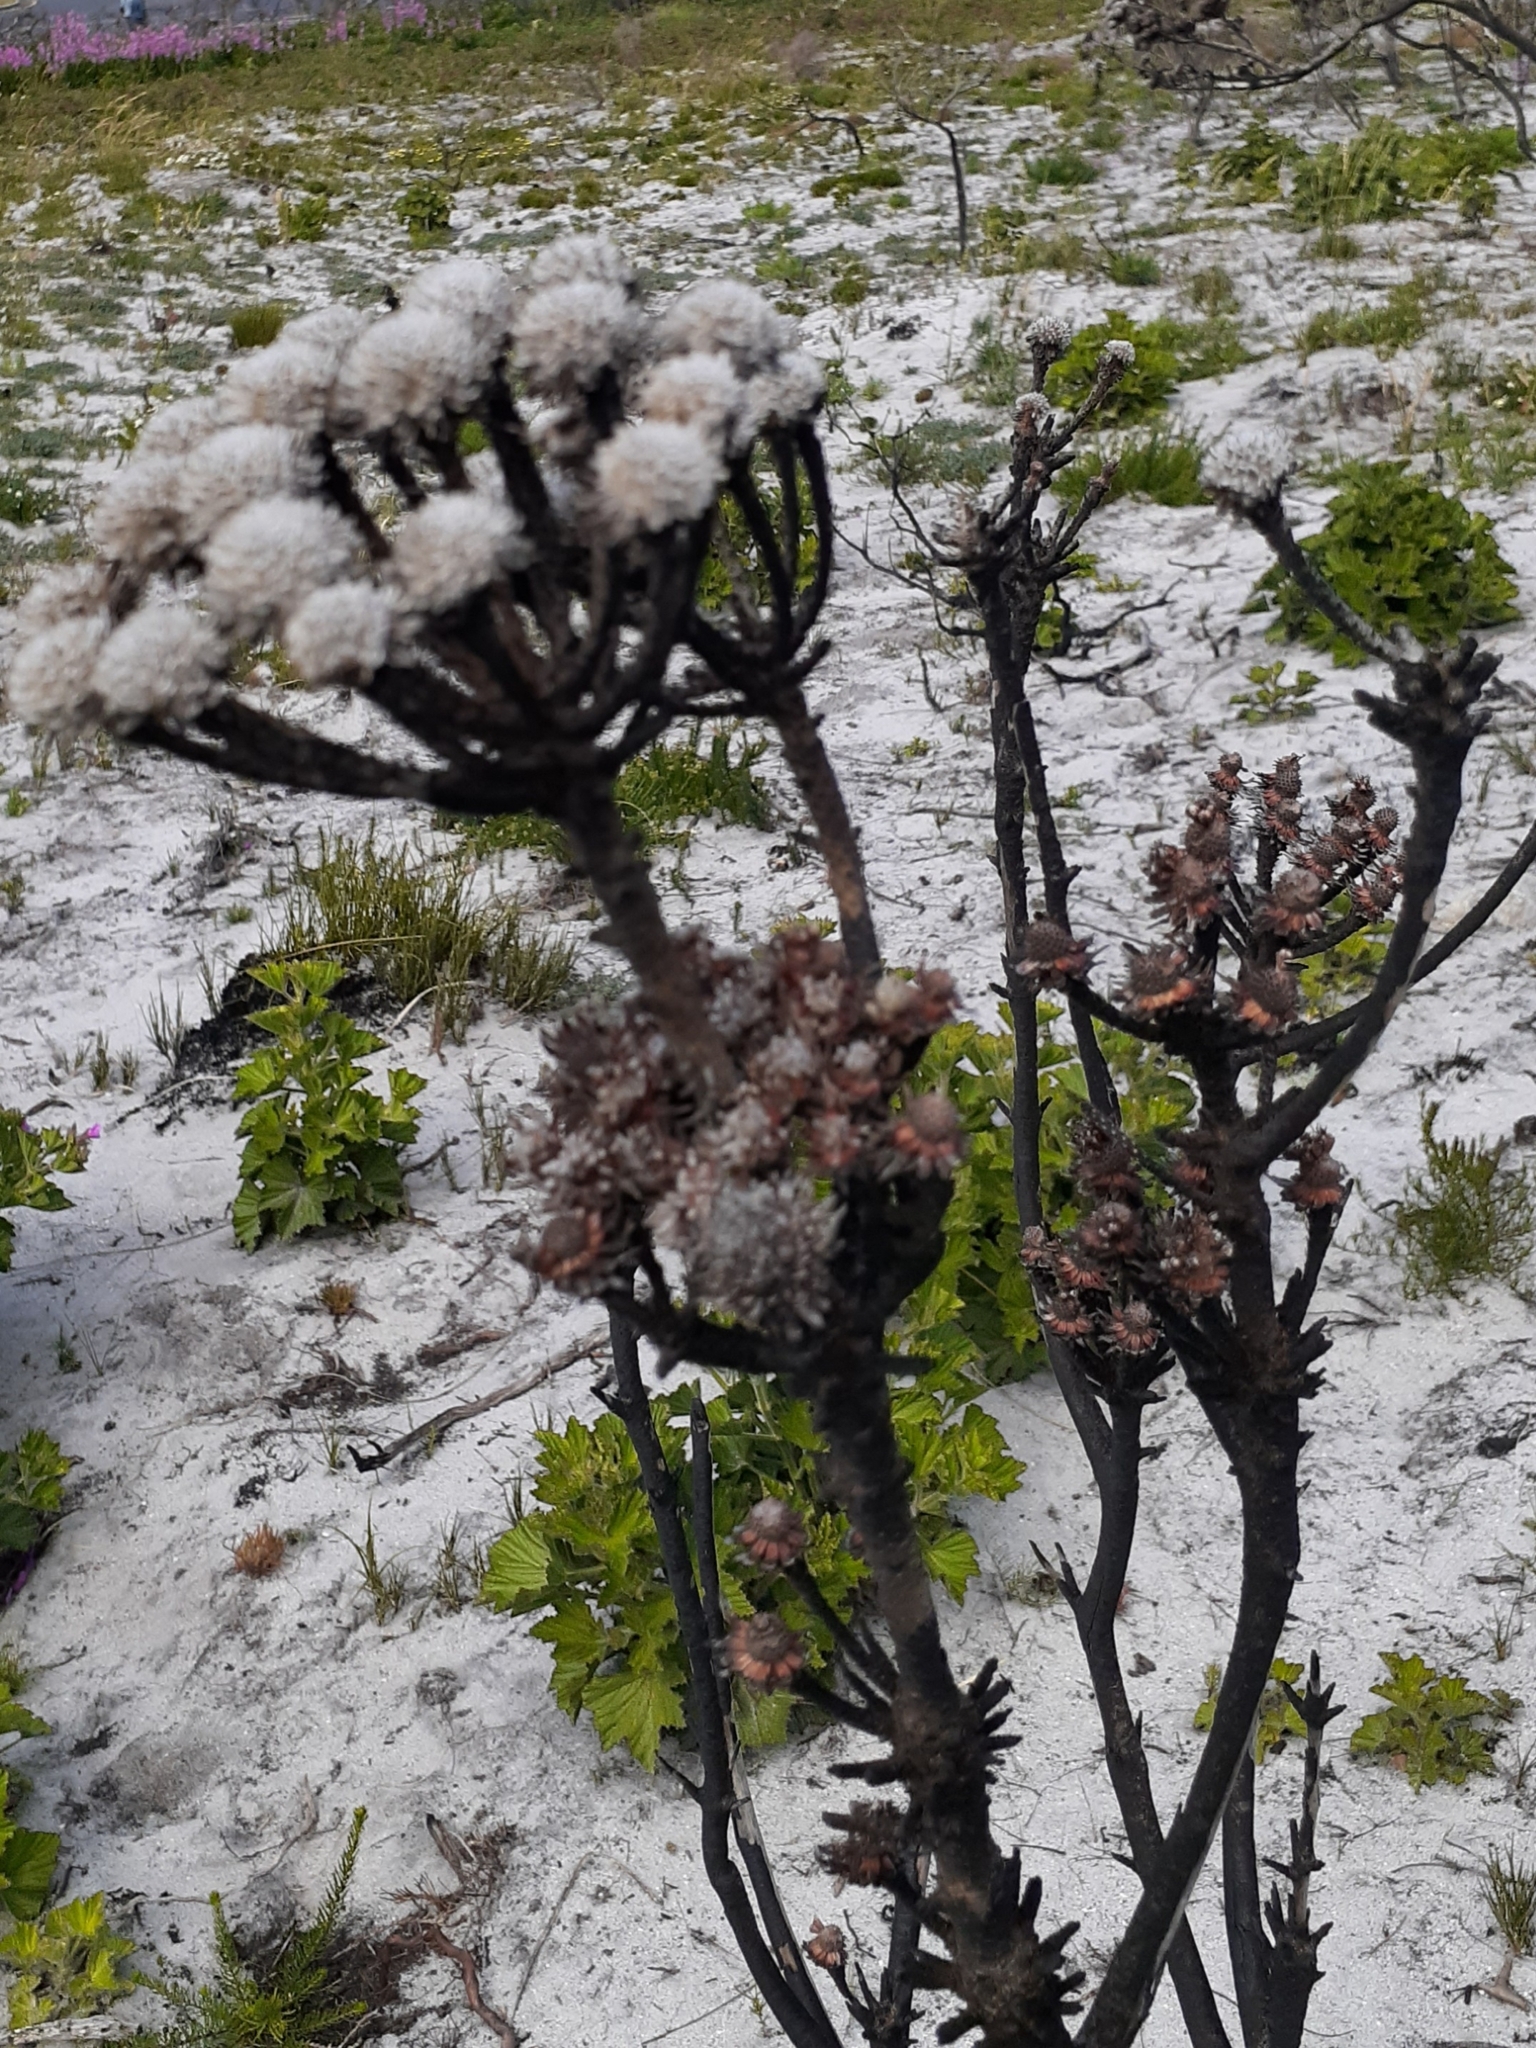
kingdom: Plantae
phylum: Tracheophyta
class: Magnoliopsida
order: Bruniales
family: Bruniaceae
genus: Berzelia
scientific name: Berzelia albiflora
